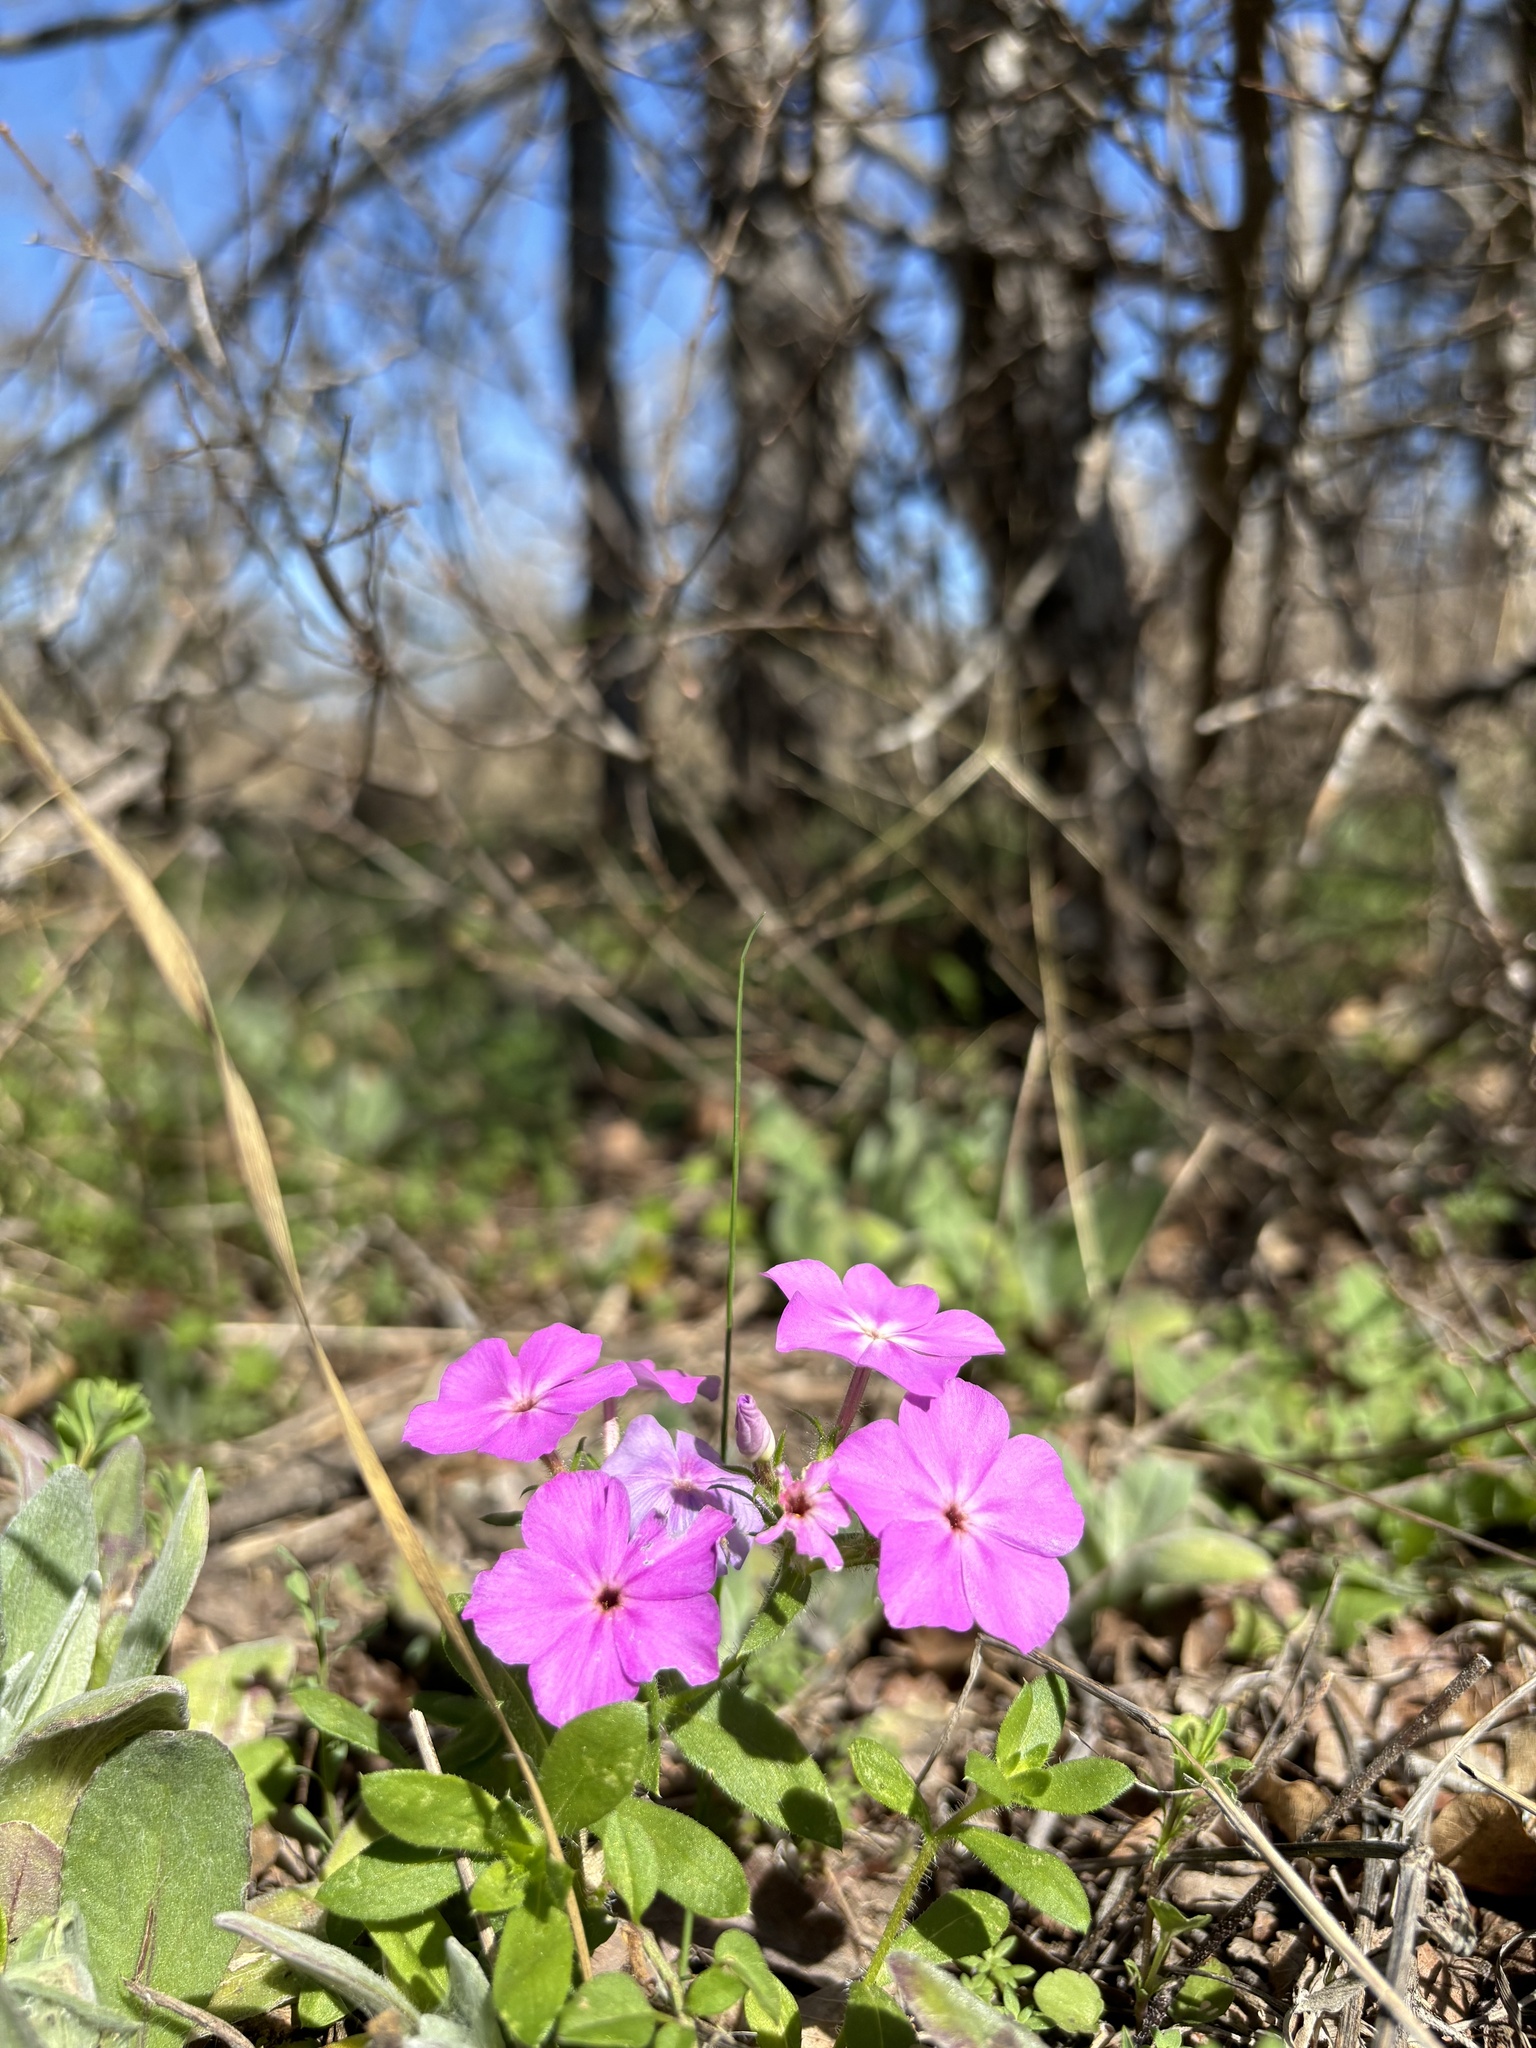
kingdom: Plantae
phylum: Tracheophyta
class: Magnoliopsida
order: Ericales
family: Polemoniaceae
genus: Phlox
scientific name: Phlox drummondii
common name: Drummond's phlox
